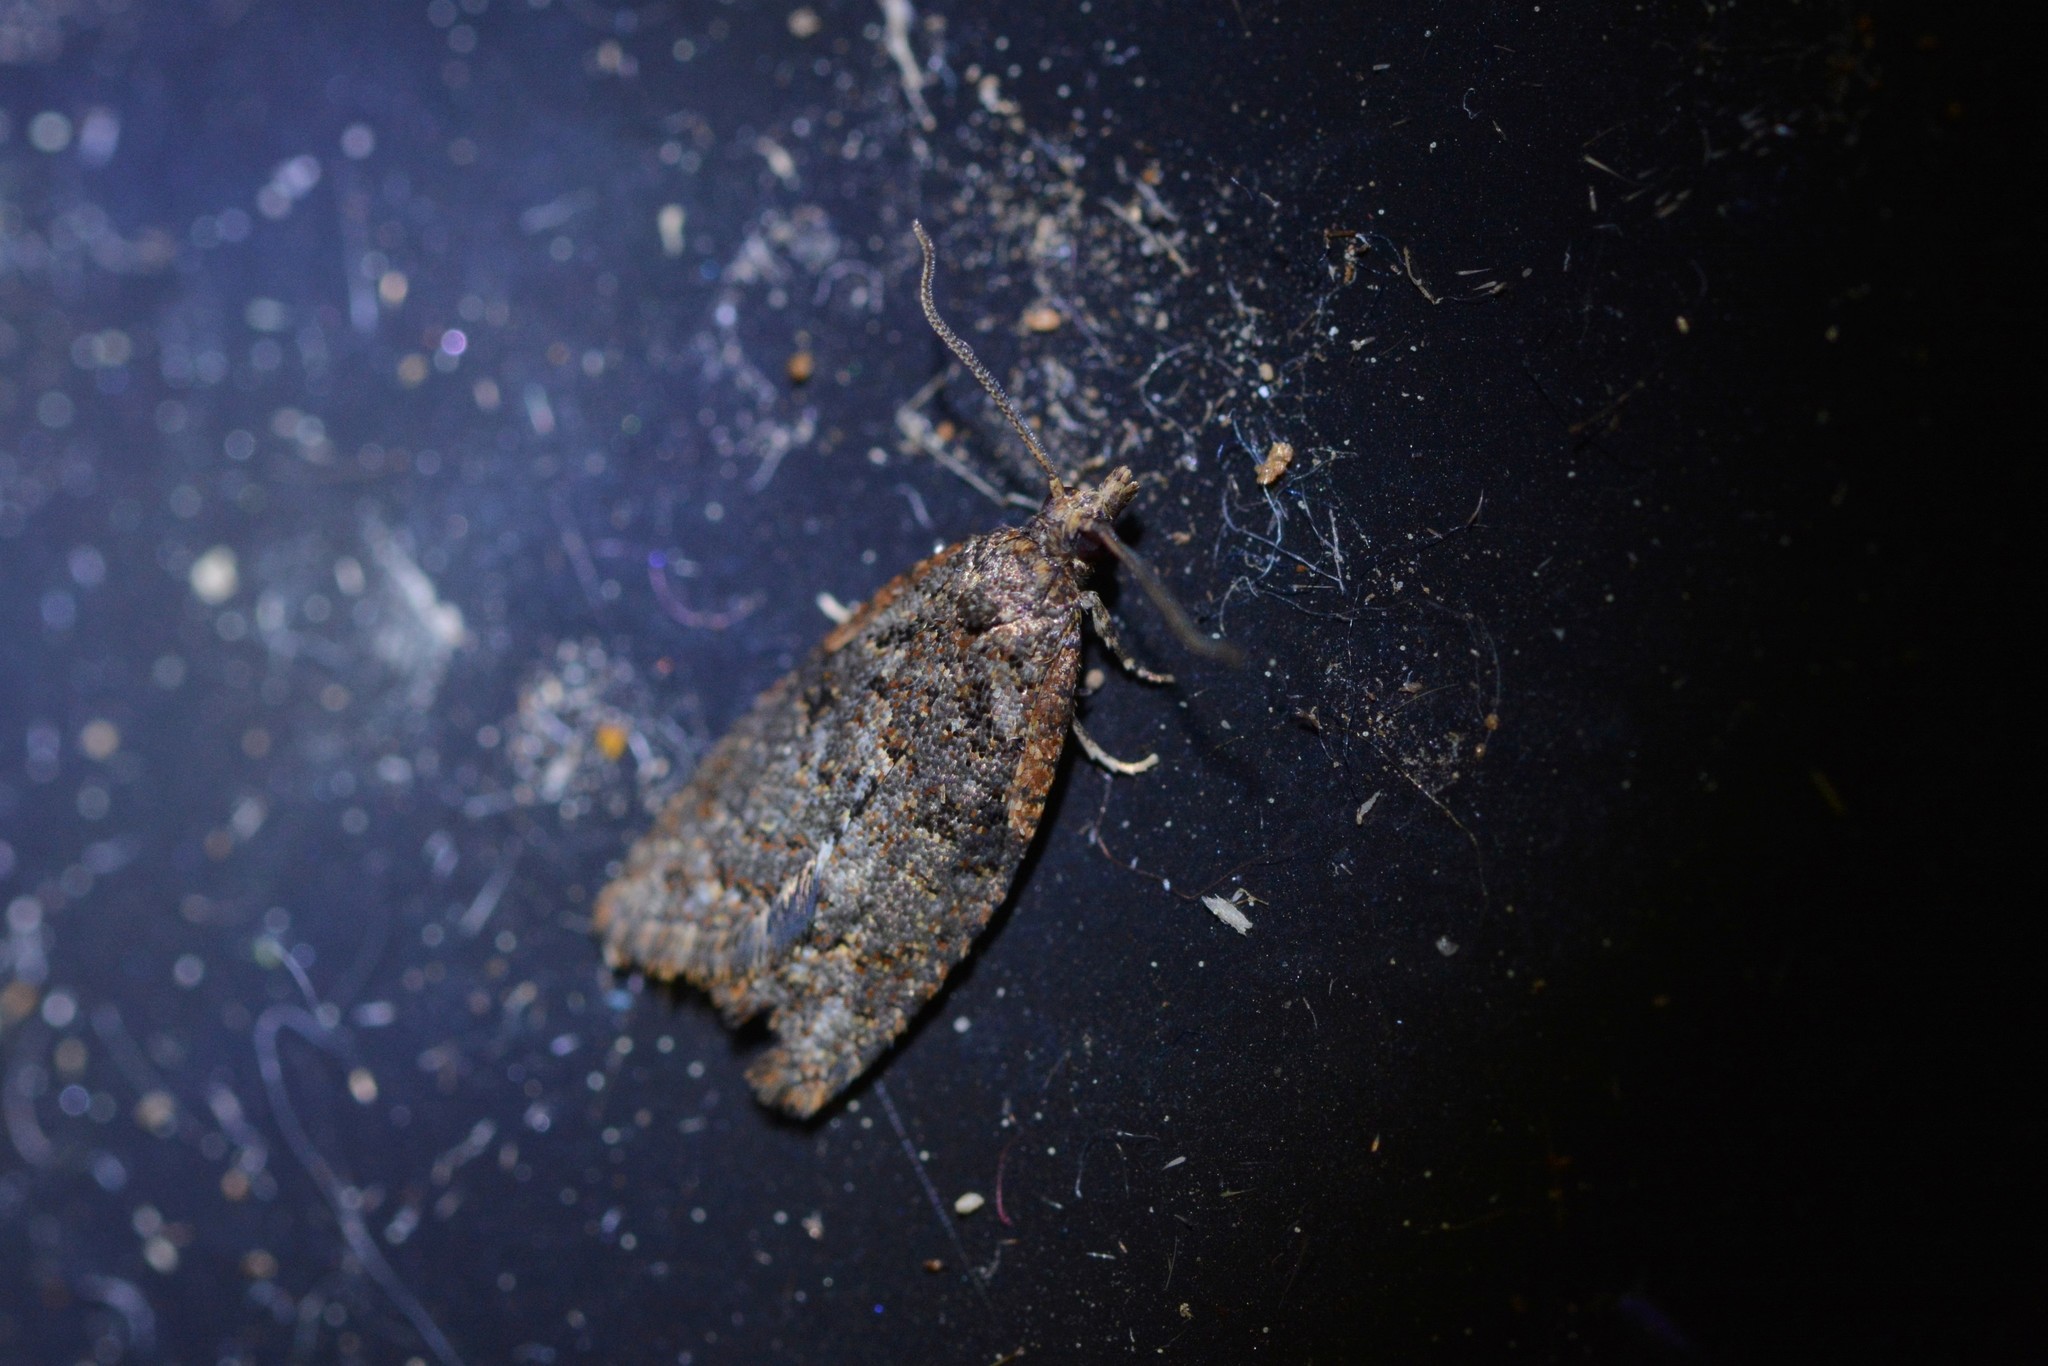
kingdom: Animalia
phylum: Arthropoda
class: Insecta
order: Lepidoptera
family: Tortricidae
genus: Capua
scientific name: Capua intractana
